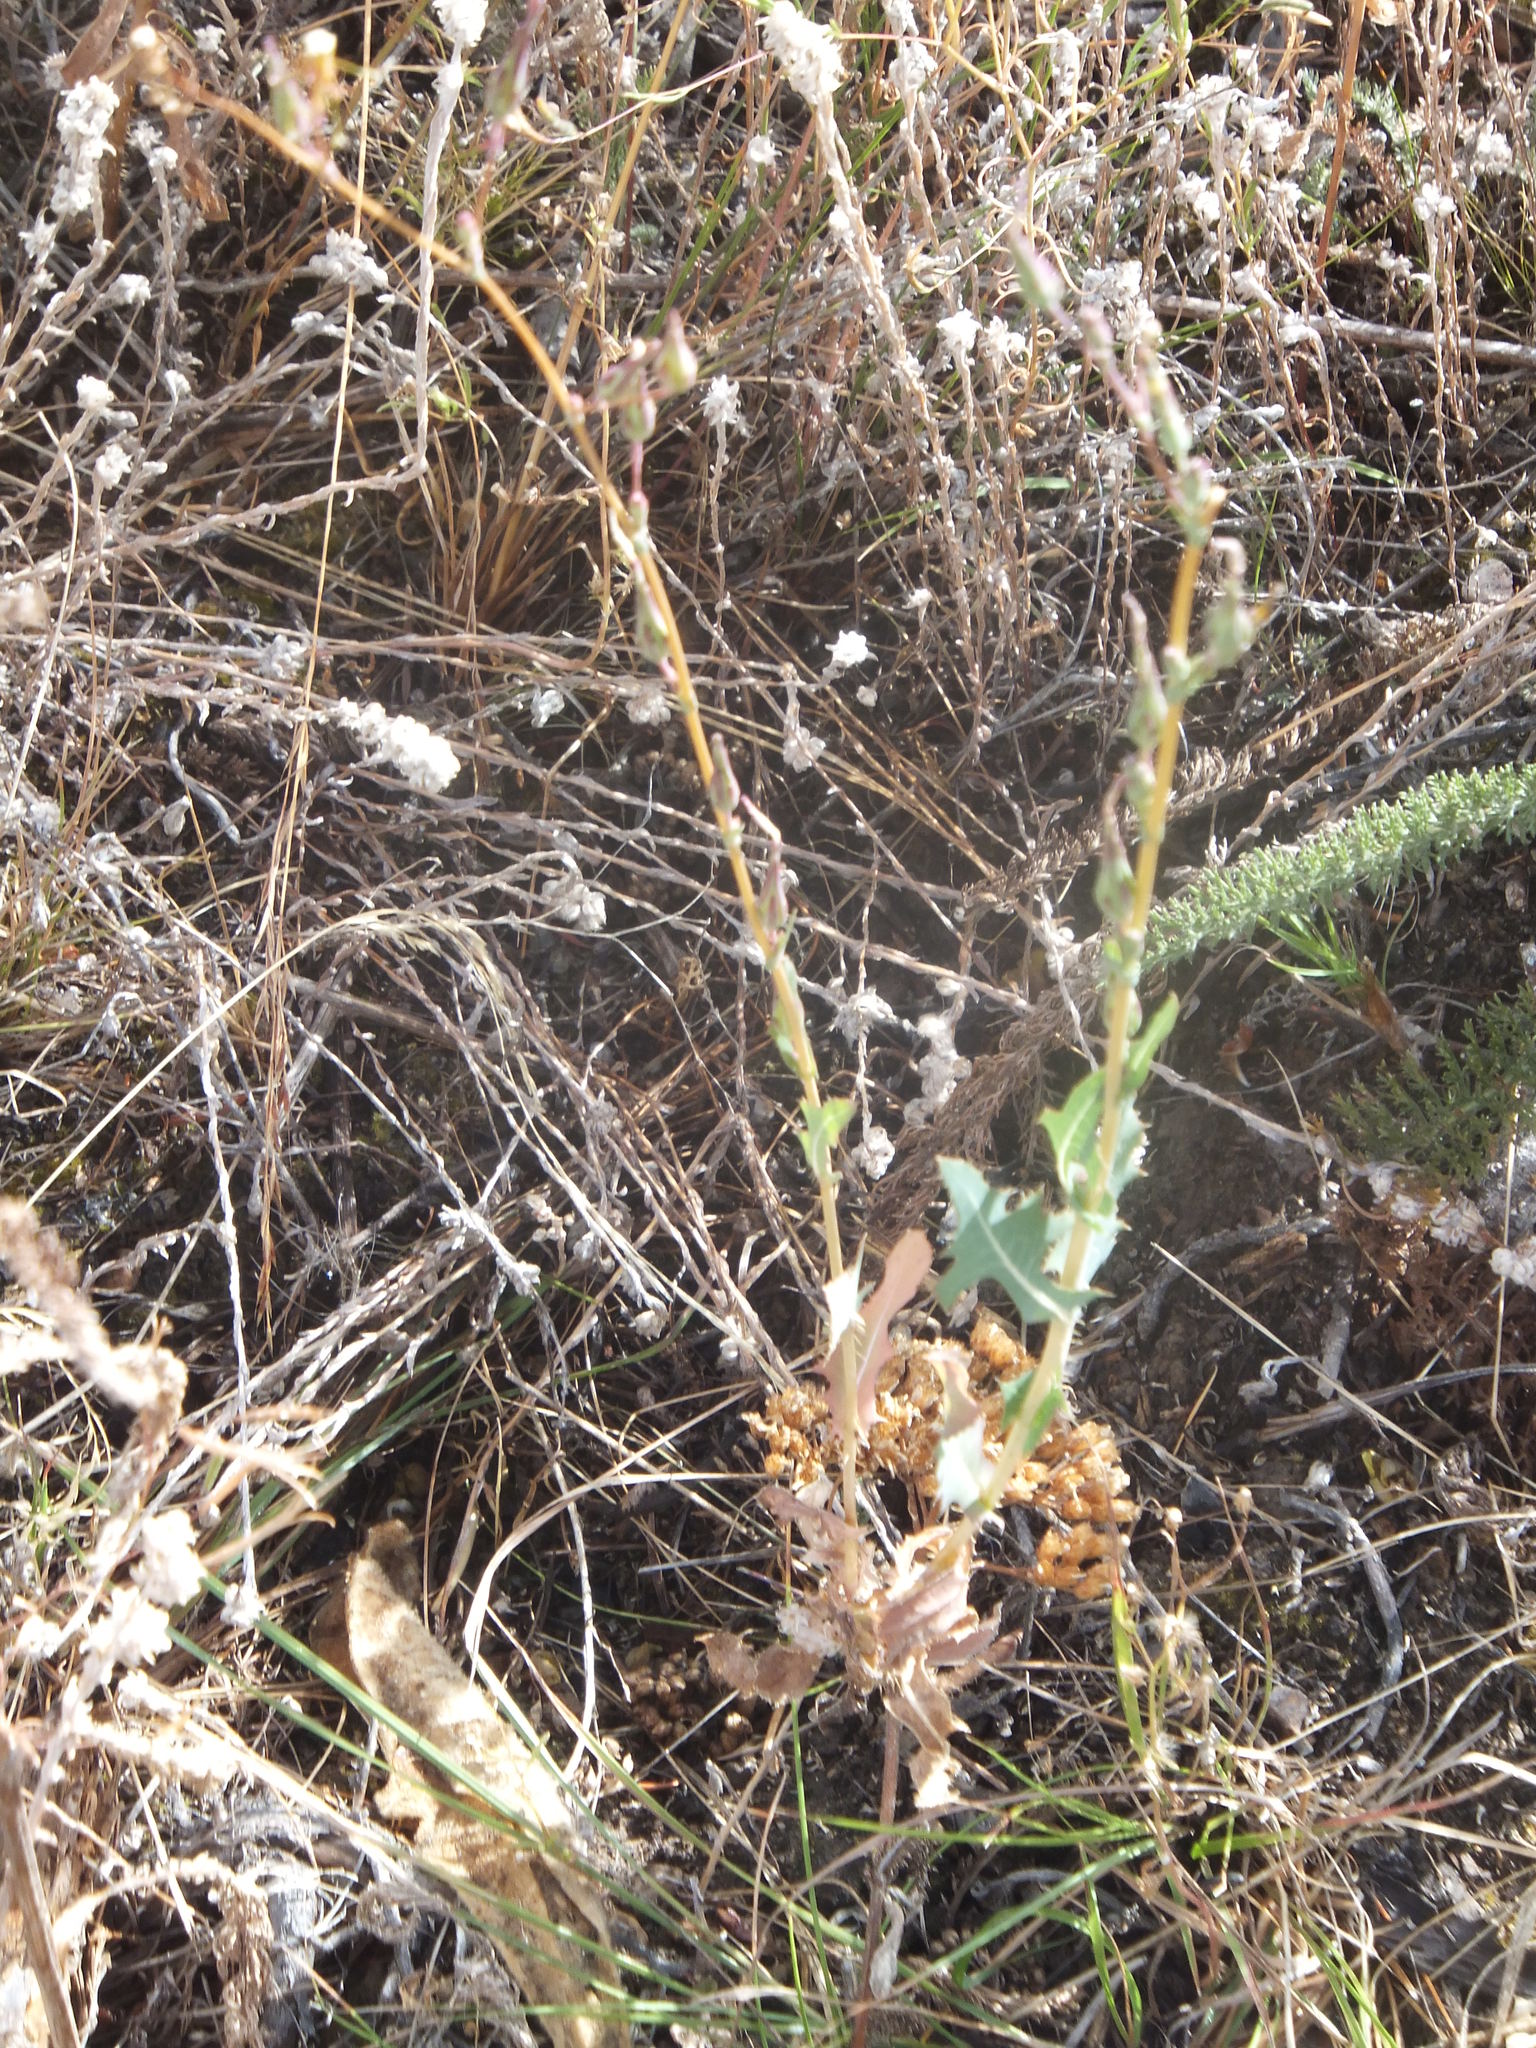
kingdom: Plantae
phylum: Tracheophyta
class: Magnoliopsida
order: Asterales
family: Asteraceae
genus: Lactuca
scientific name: Lactuca serriola
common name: Prickly lettuce
